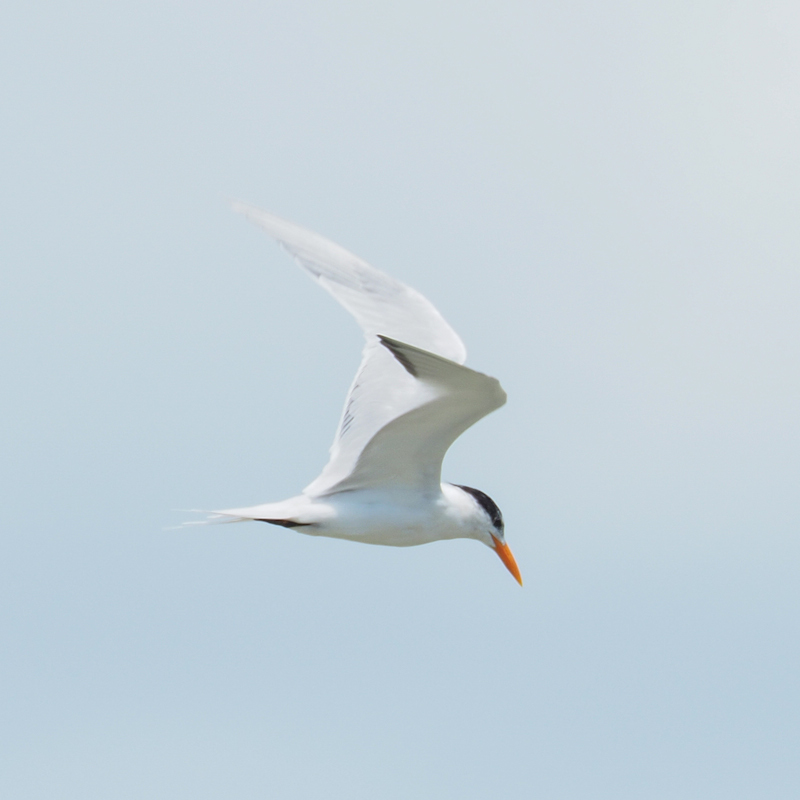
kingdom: Animalia
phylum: Chordata
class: Aves
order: Charadriiformes
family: Laridae
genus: Thalasseus
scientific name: Thalasseus maximus
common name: Royal tern
